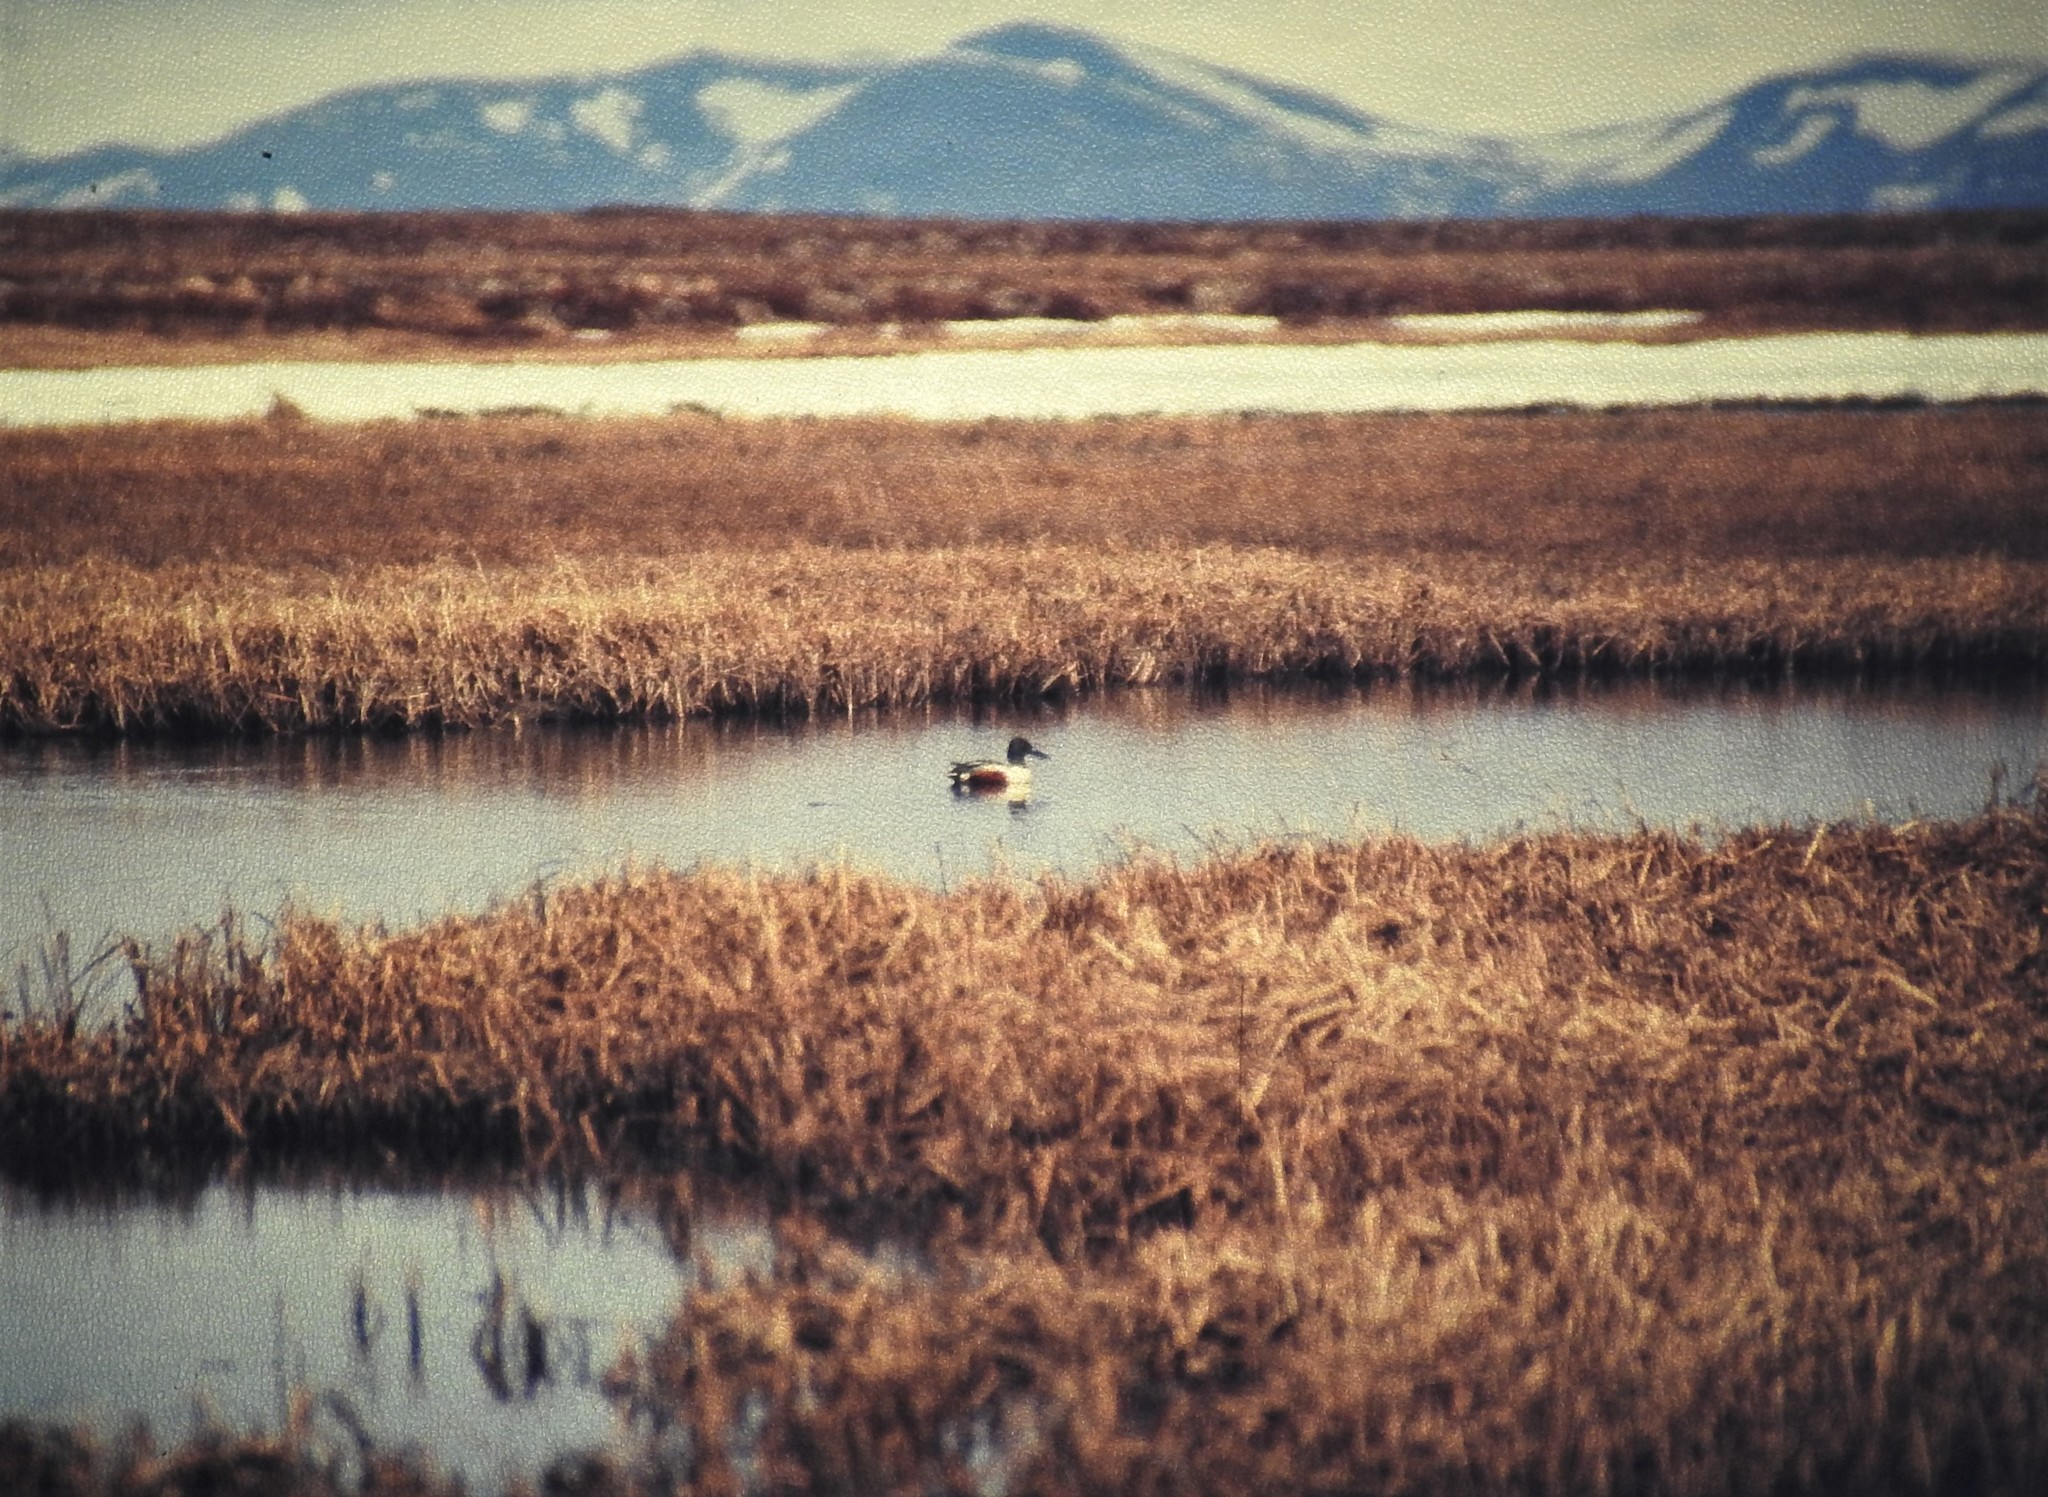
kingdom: Animalia
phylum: Chordata
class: Aves
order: Anseriformes
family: Anatidae
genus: Spatula
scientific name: Spatula clypeata
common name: Northern shoveler
